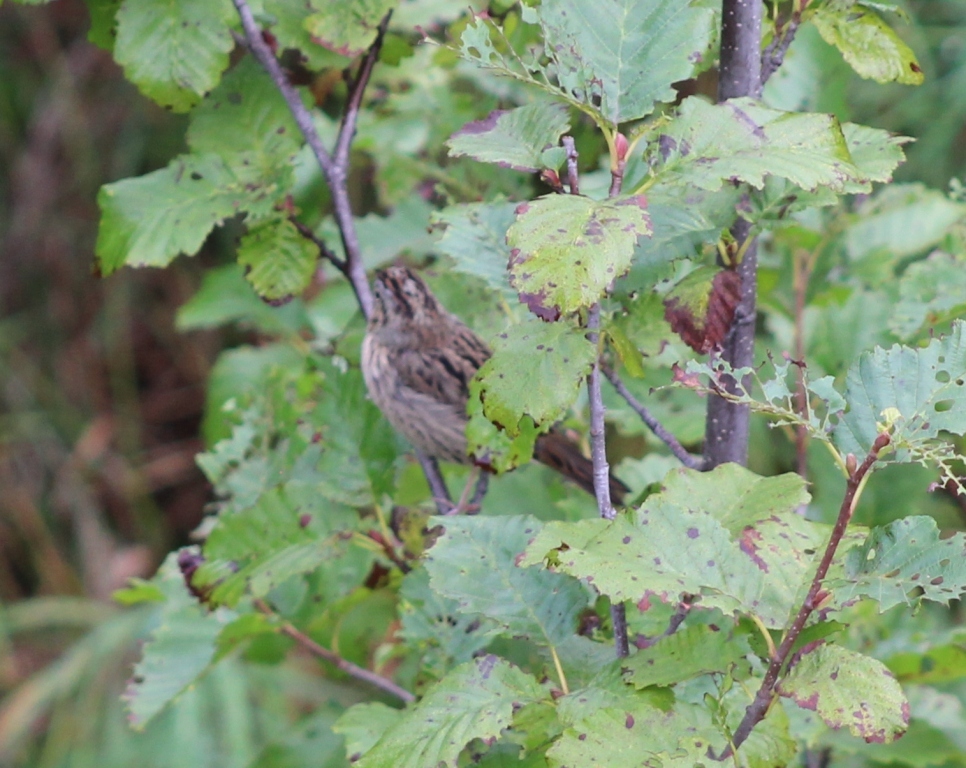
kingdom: Animalia
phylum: Chordata
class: Aves
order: Passeriformes
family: Passerellidae
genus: Melospiza
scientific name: Melospiza lincolnii
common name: Lincoln's sparrow
